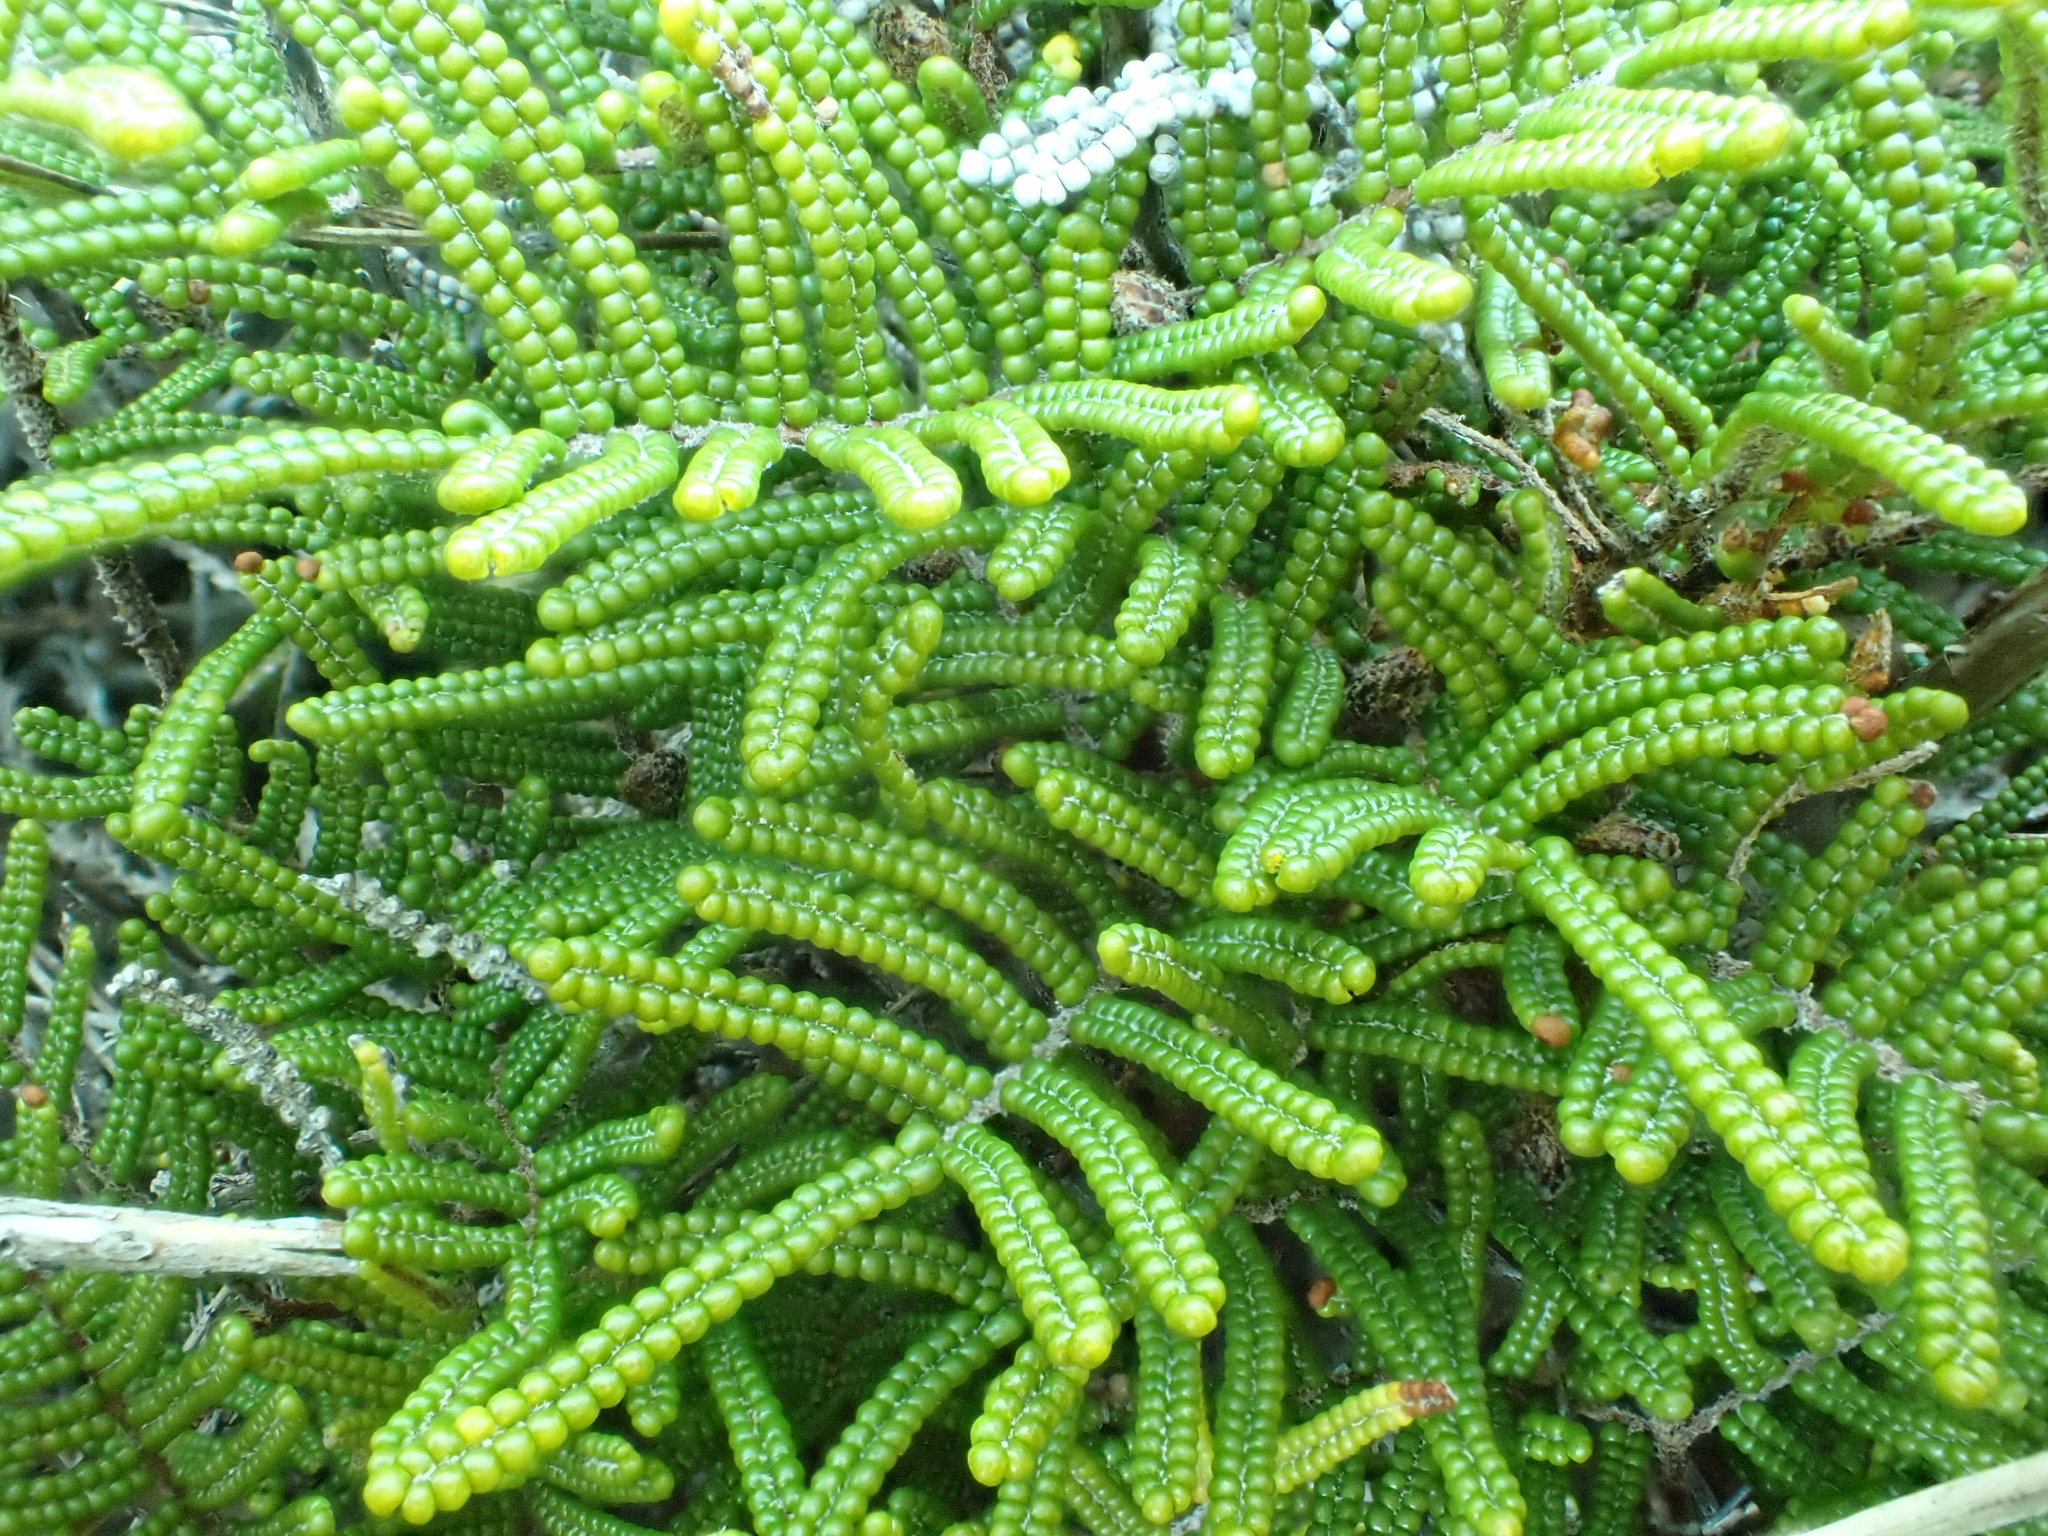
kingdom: Plantae
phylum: Tracheophyta
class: Polypodiopsida
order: Gleicheniales
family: Gleicheniaceae
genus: Gleichenia
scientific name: Gleichenia alpina
